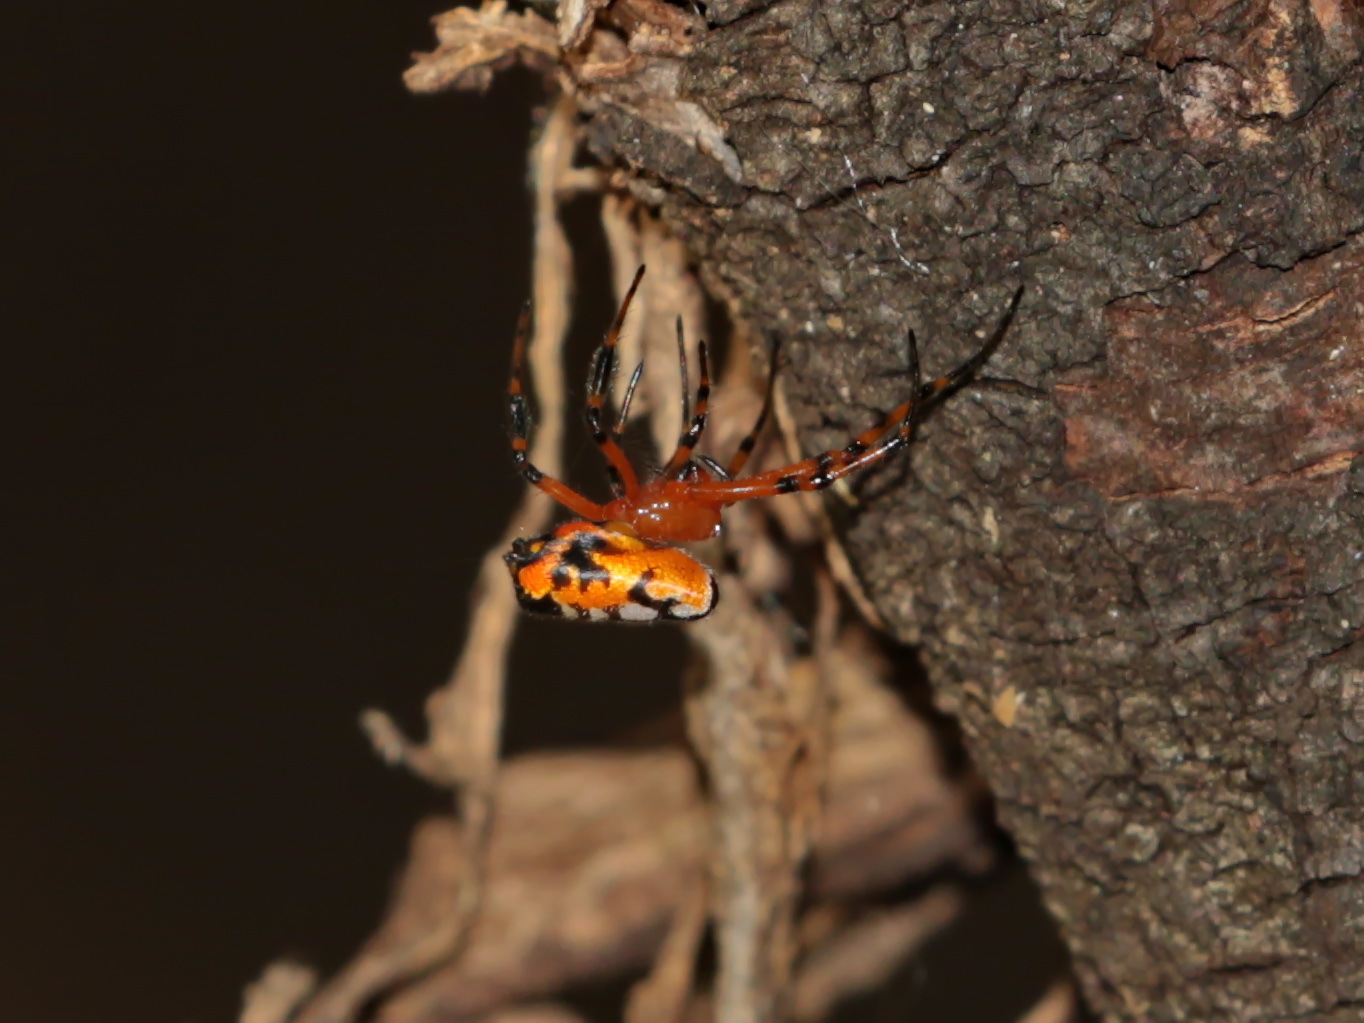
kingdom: Animalia
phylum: Arthropoda
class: Arachnida
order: Araneae
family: Tetragnathidae
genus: Leucauge
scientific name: Leucauge fastigata
